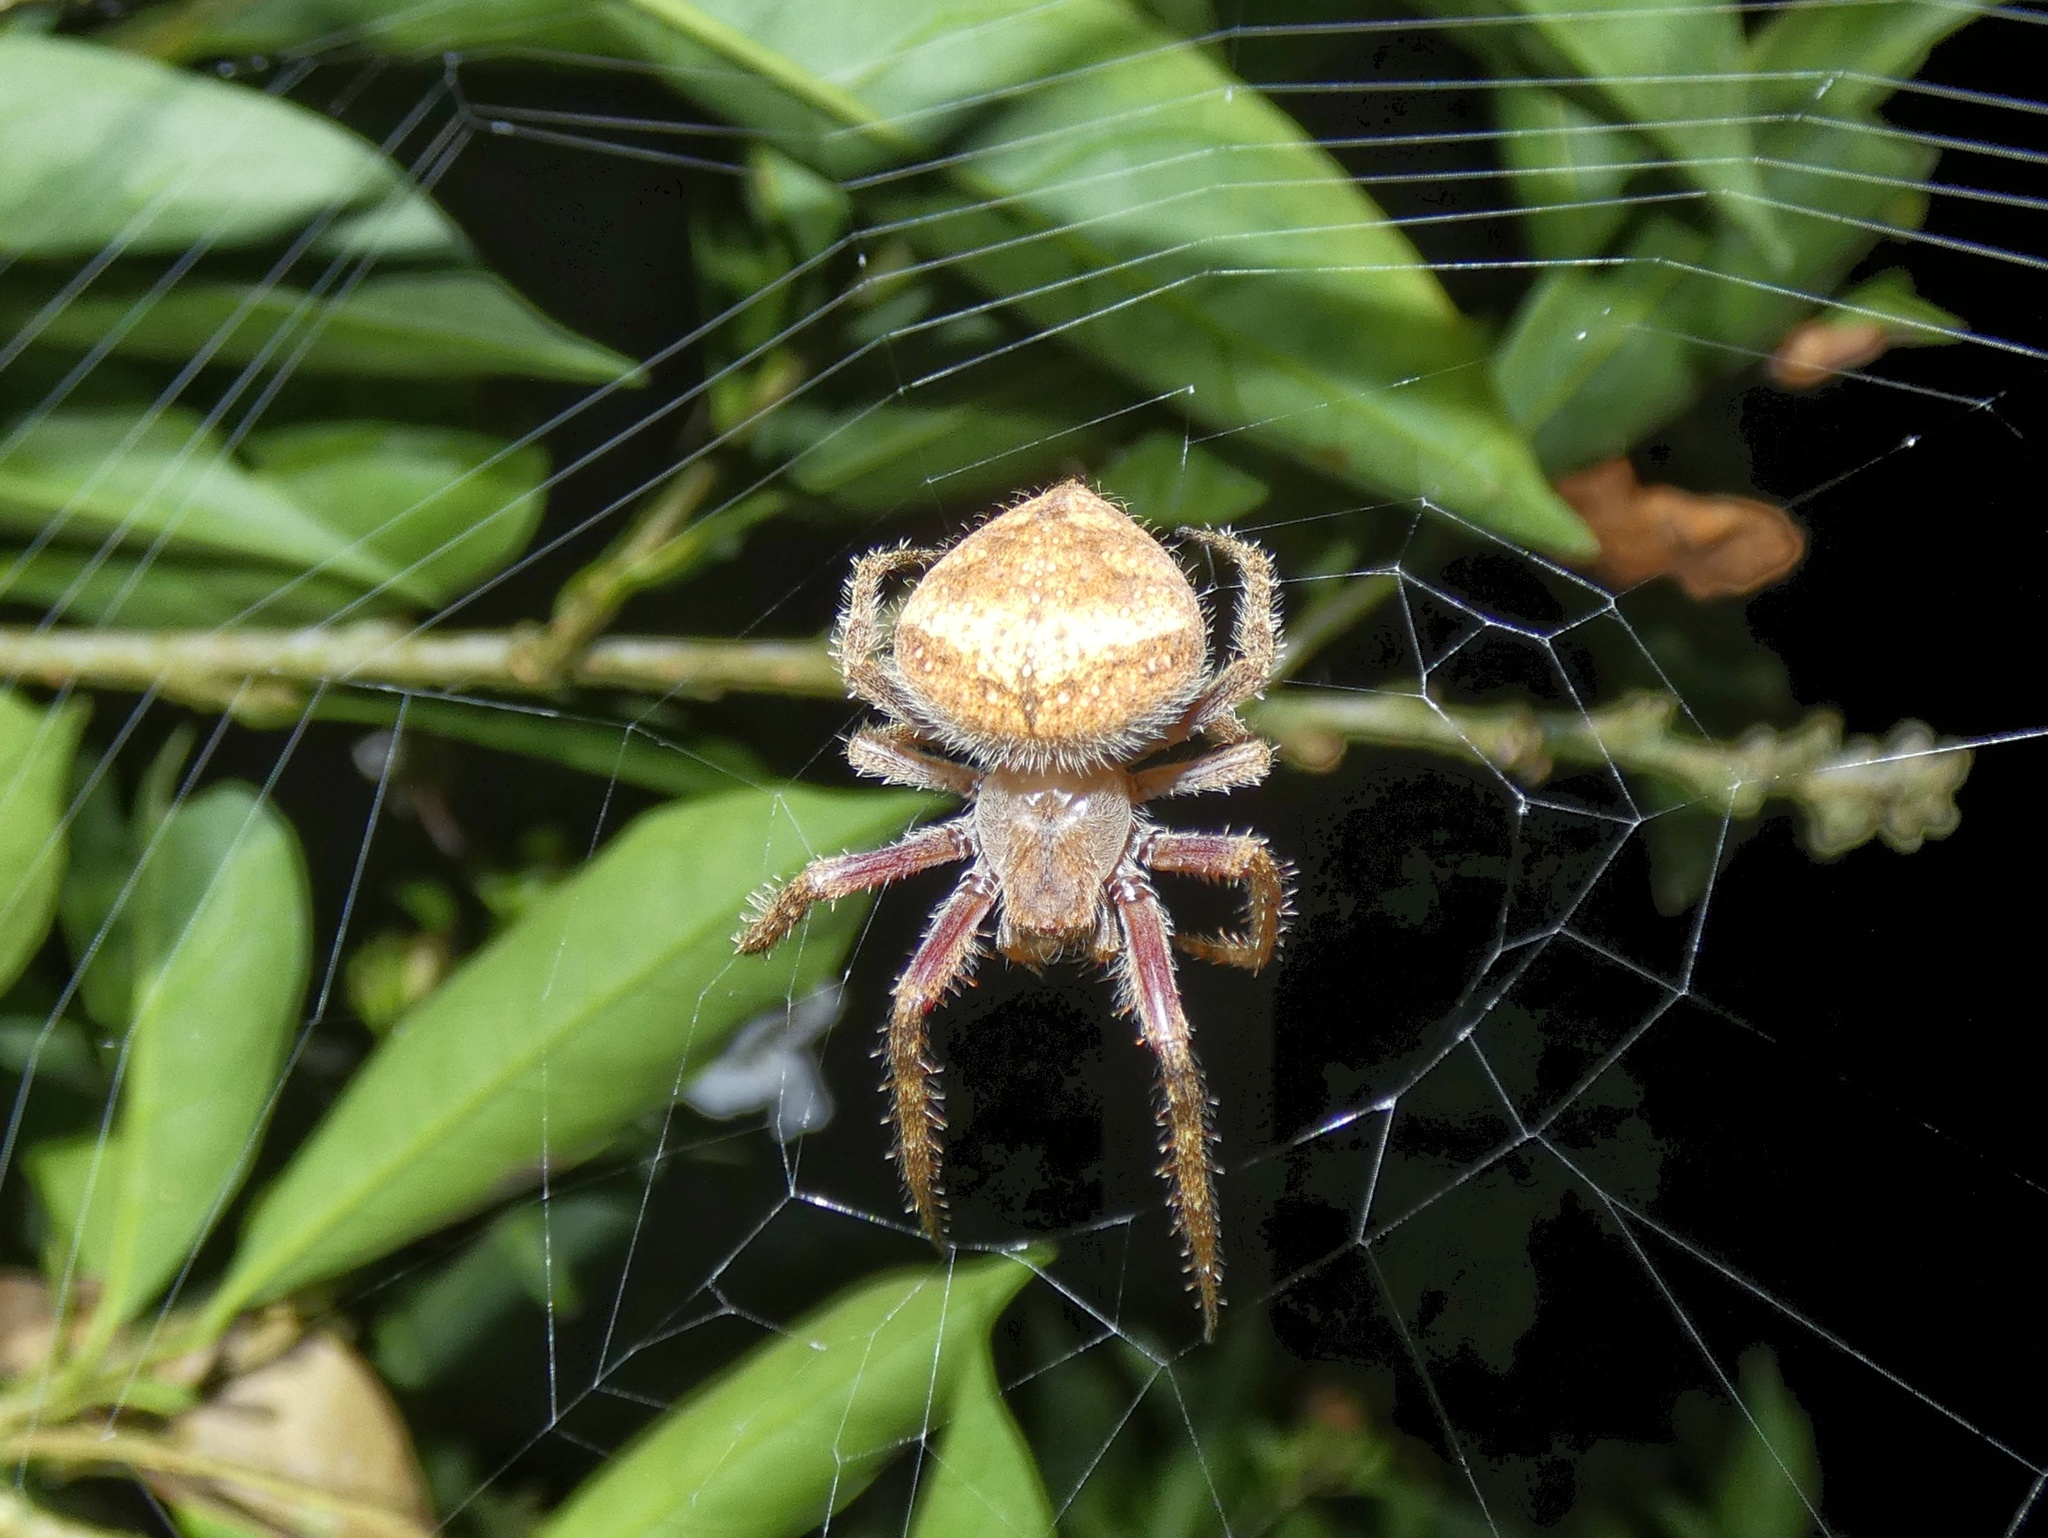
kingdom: Animalia
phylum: Arthropoda
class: Arachnida
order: Araneae
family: Araneidae
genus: Eriophora
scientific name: Eriophora edax
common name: Orb weavers
